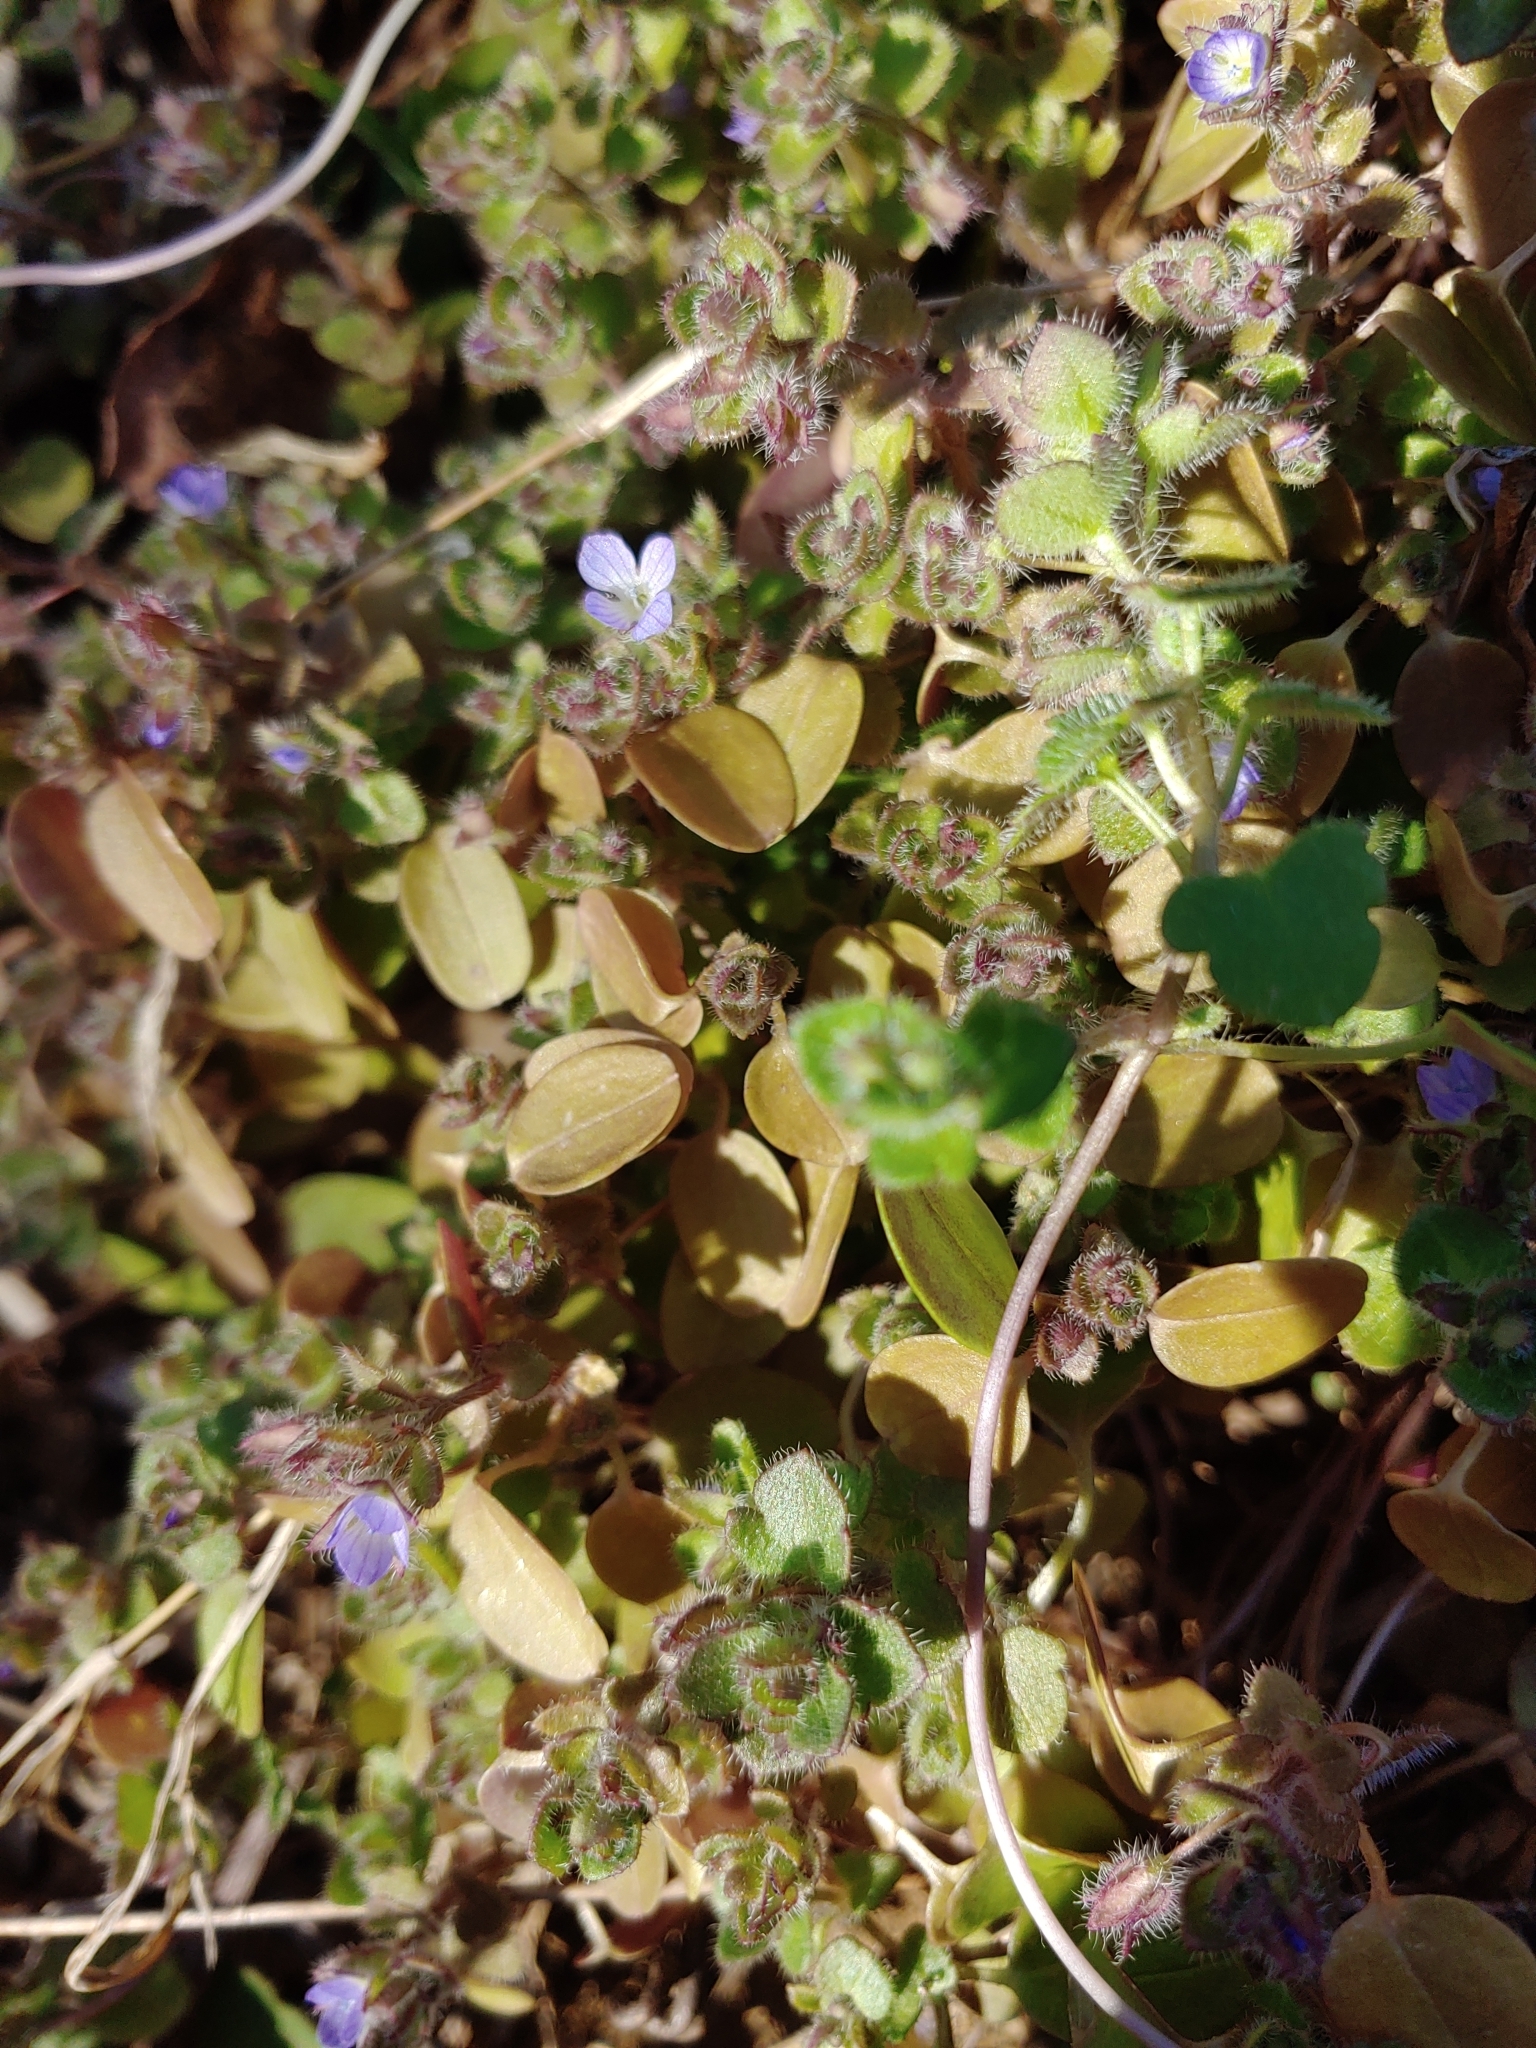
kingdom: Plantae
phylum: Tracheophyta
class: Magnoliopsida
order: Lamiales
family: Plantaginaceae
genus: Veronica
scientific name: Veronica hederifolia
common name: Ivy-leaved speedwell
